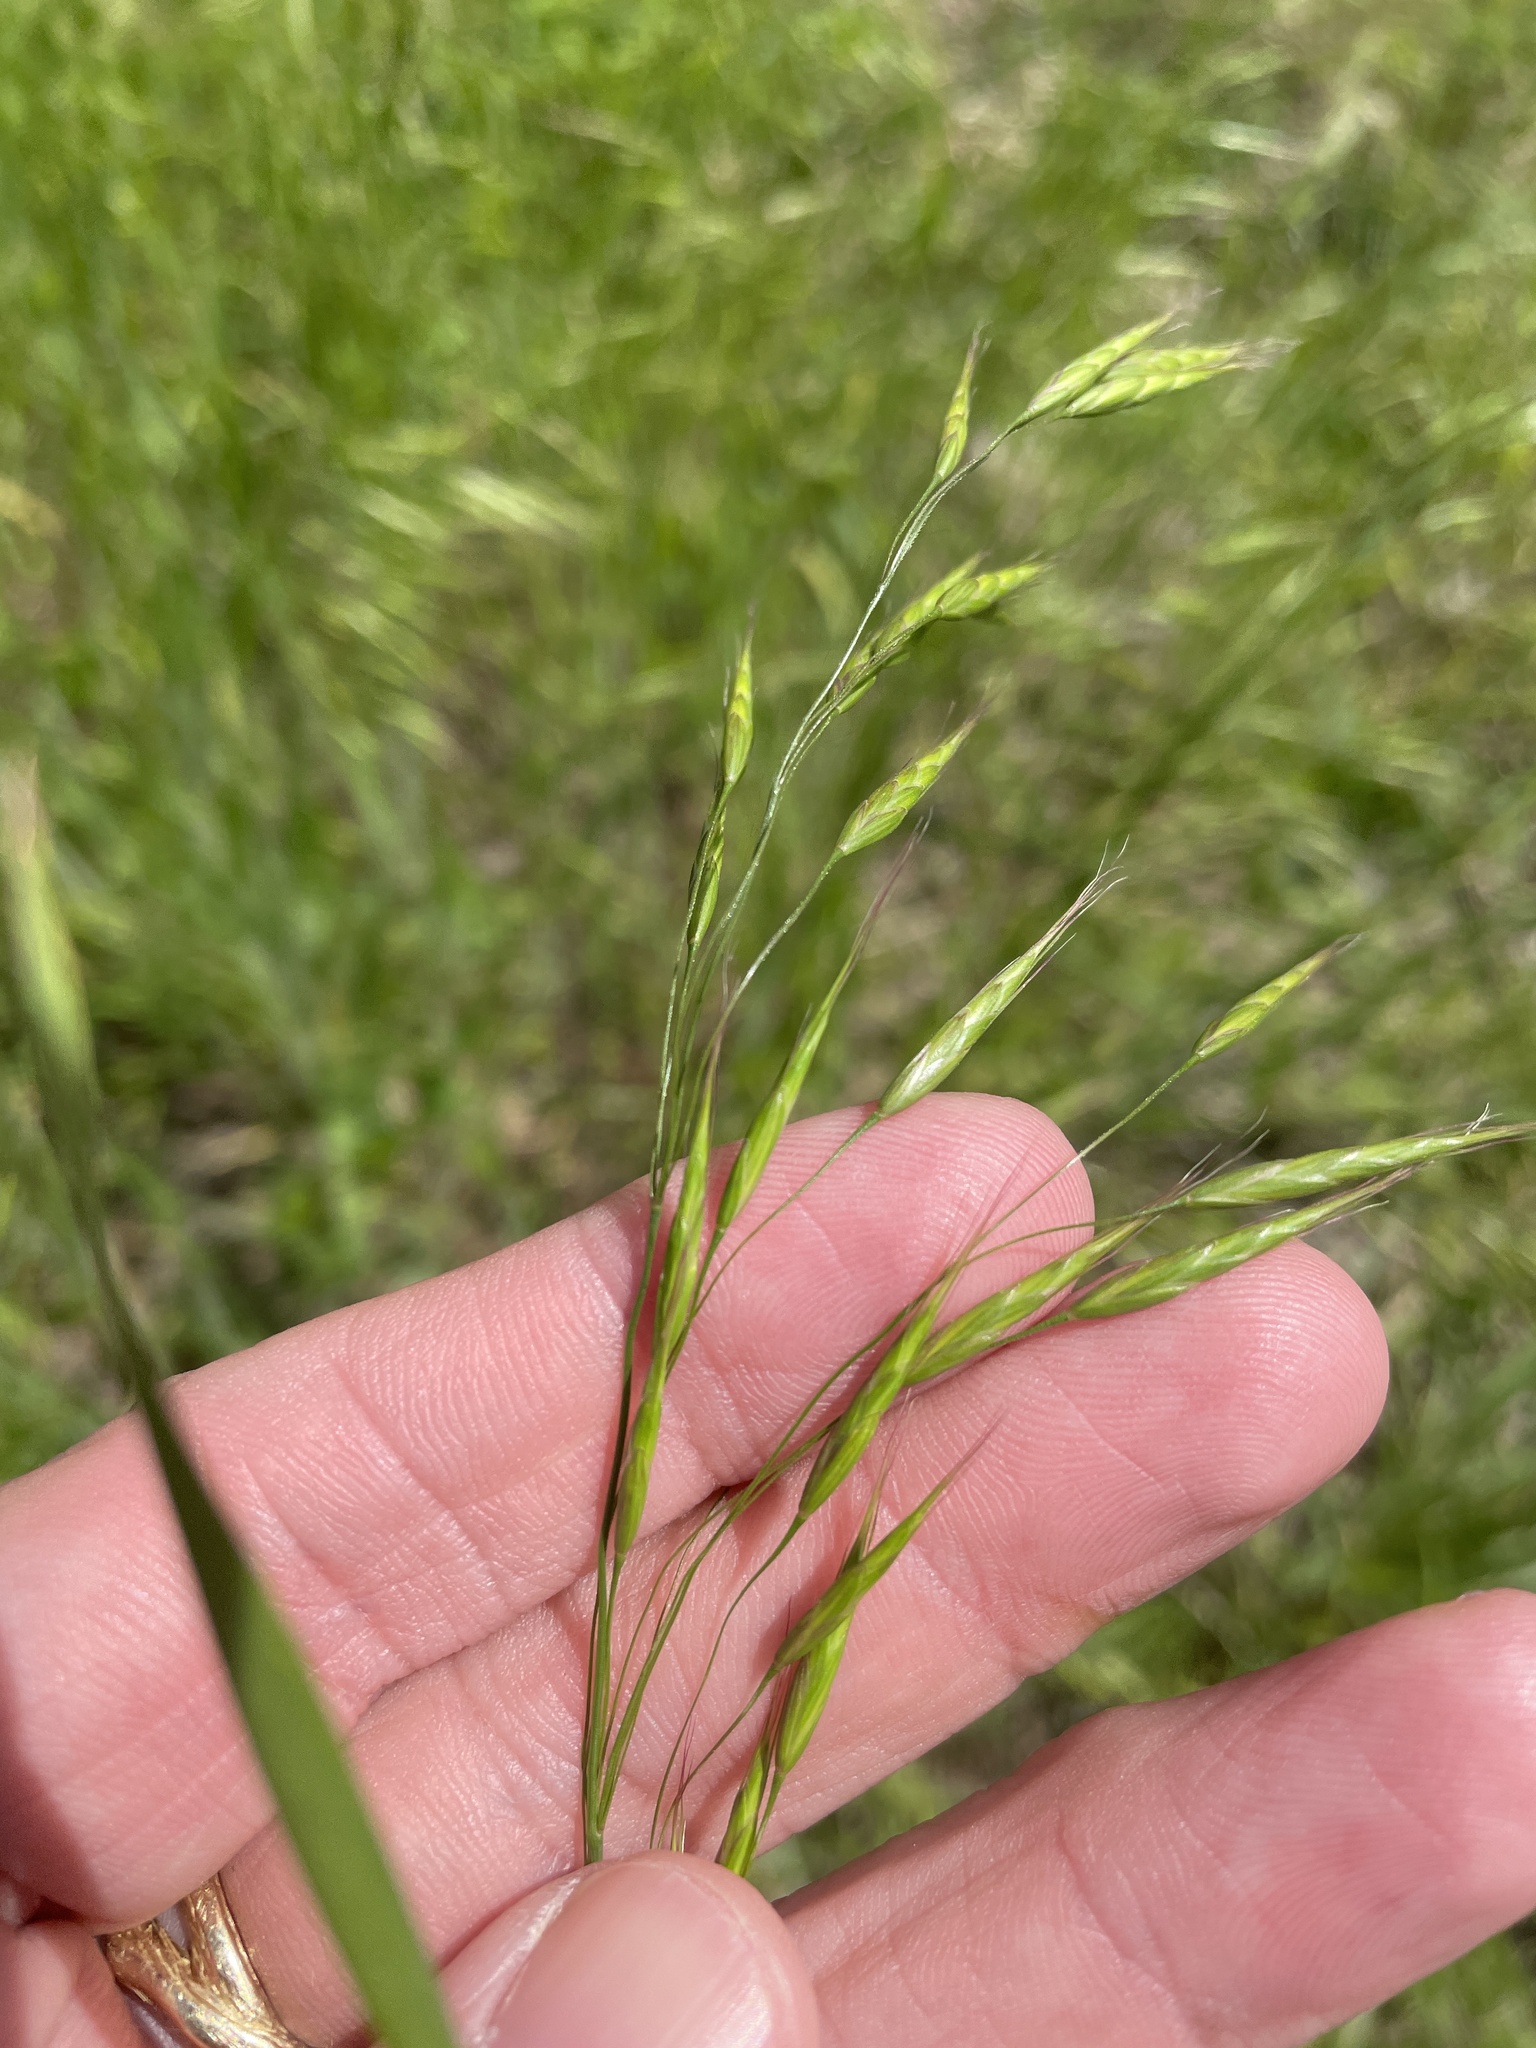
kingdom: Plantae
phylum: Tracheophyta
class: Liliopsida
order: Poales
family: Poaceae
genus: Bromus
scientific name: Bromus japonicus
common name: Japanese brome
